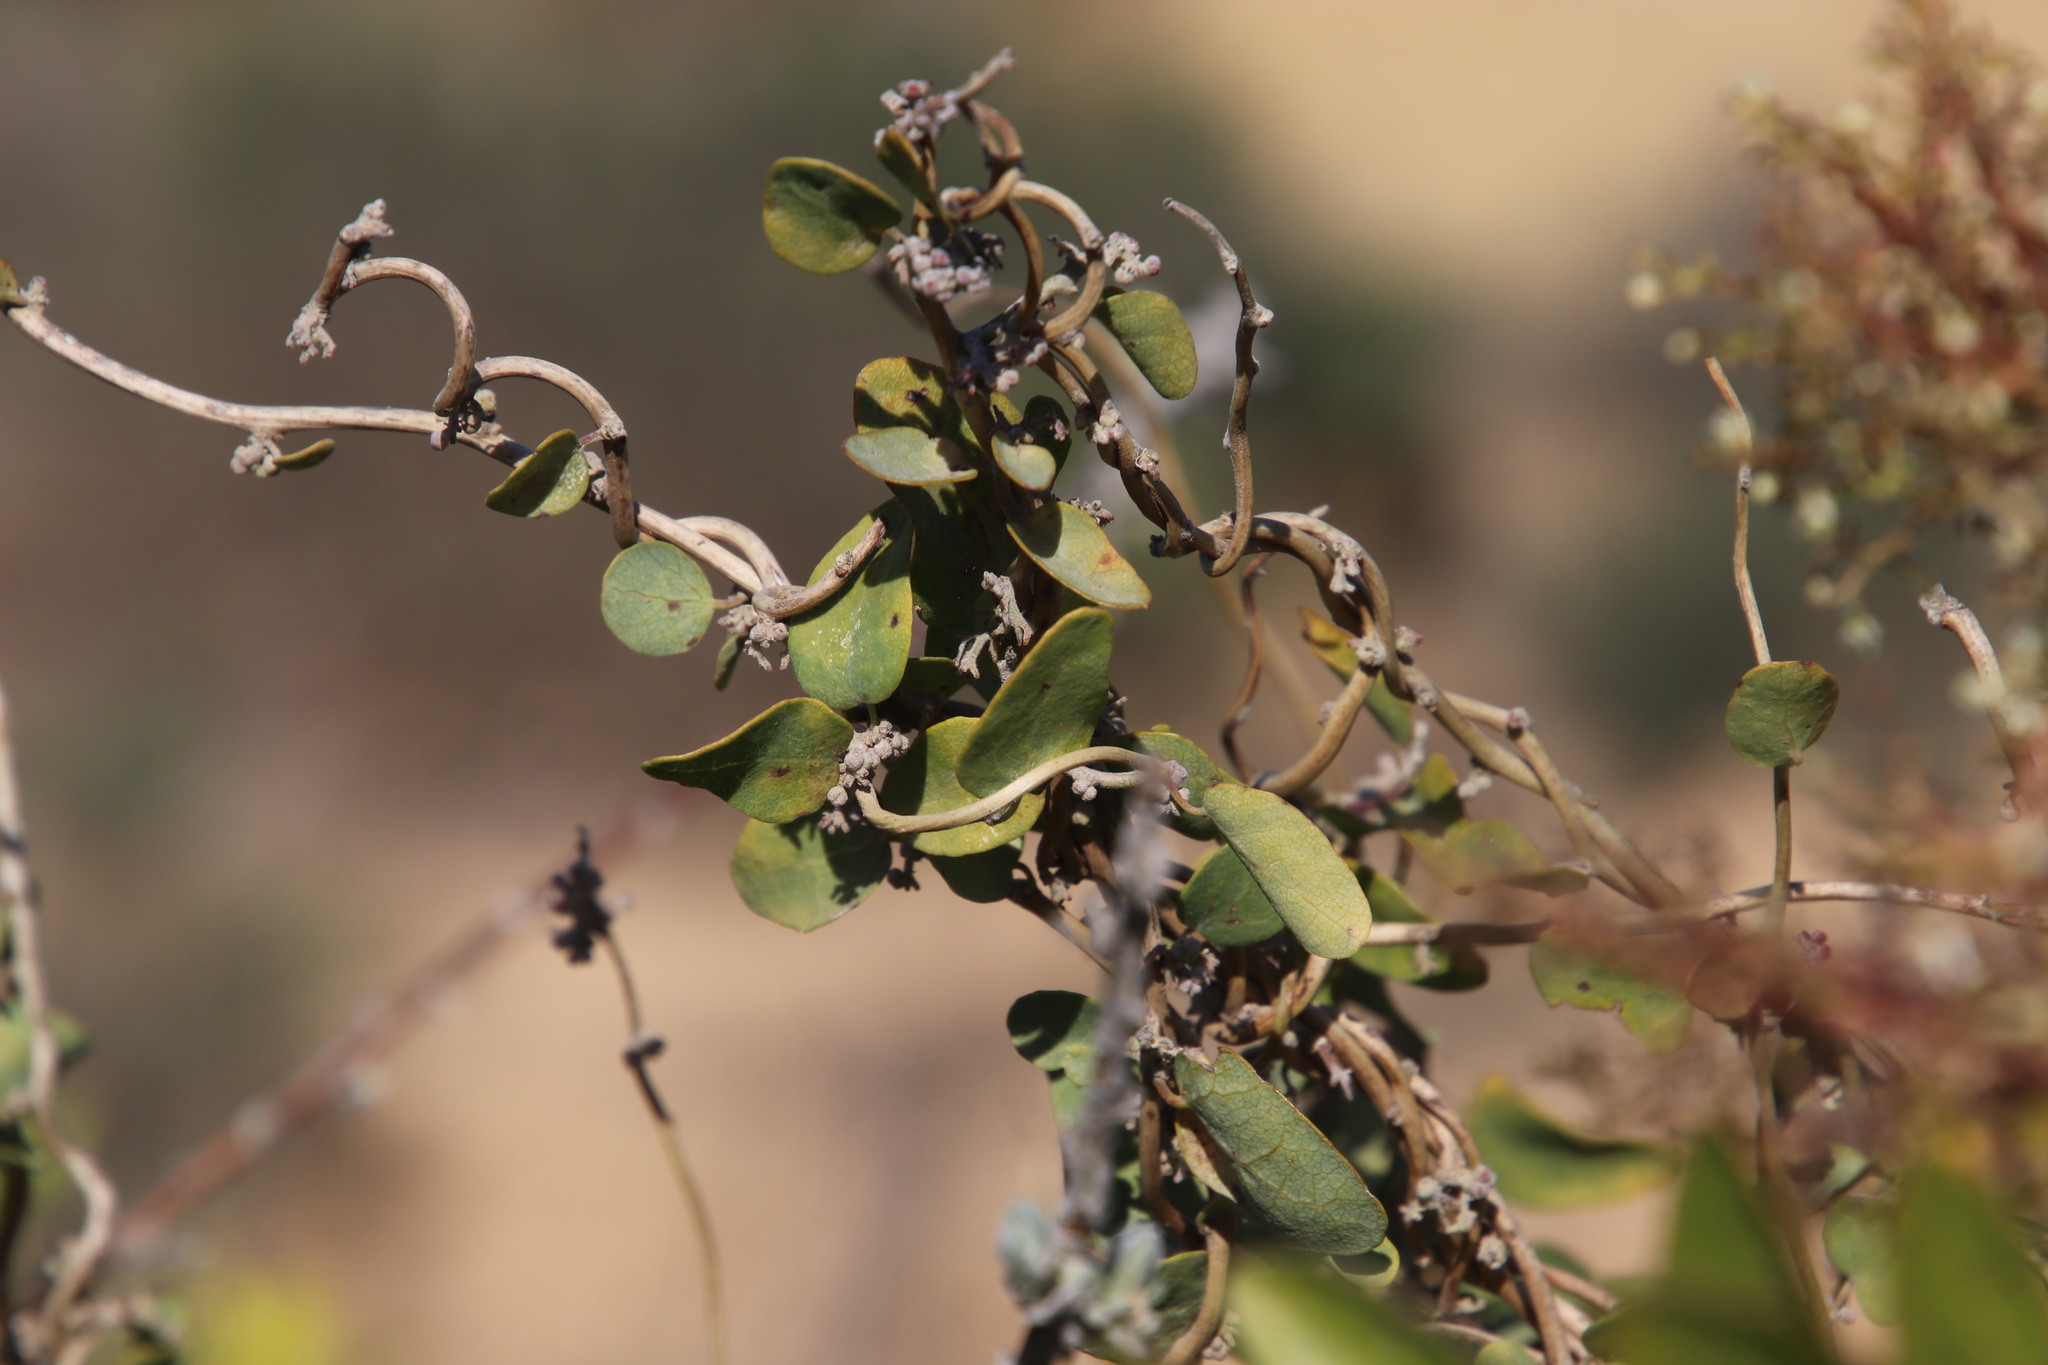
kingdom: Plantae
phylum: Tracheophyta
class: Magnoliopsida
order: Ranunculales
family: Menispermaceae
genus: Cissampelos
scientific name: Cissampelos capensis
